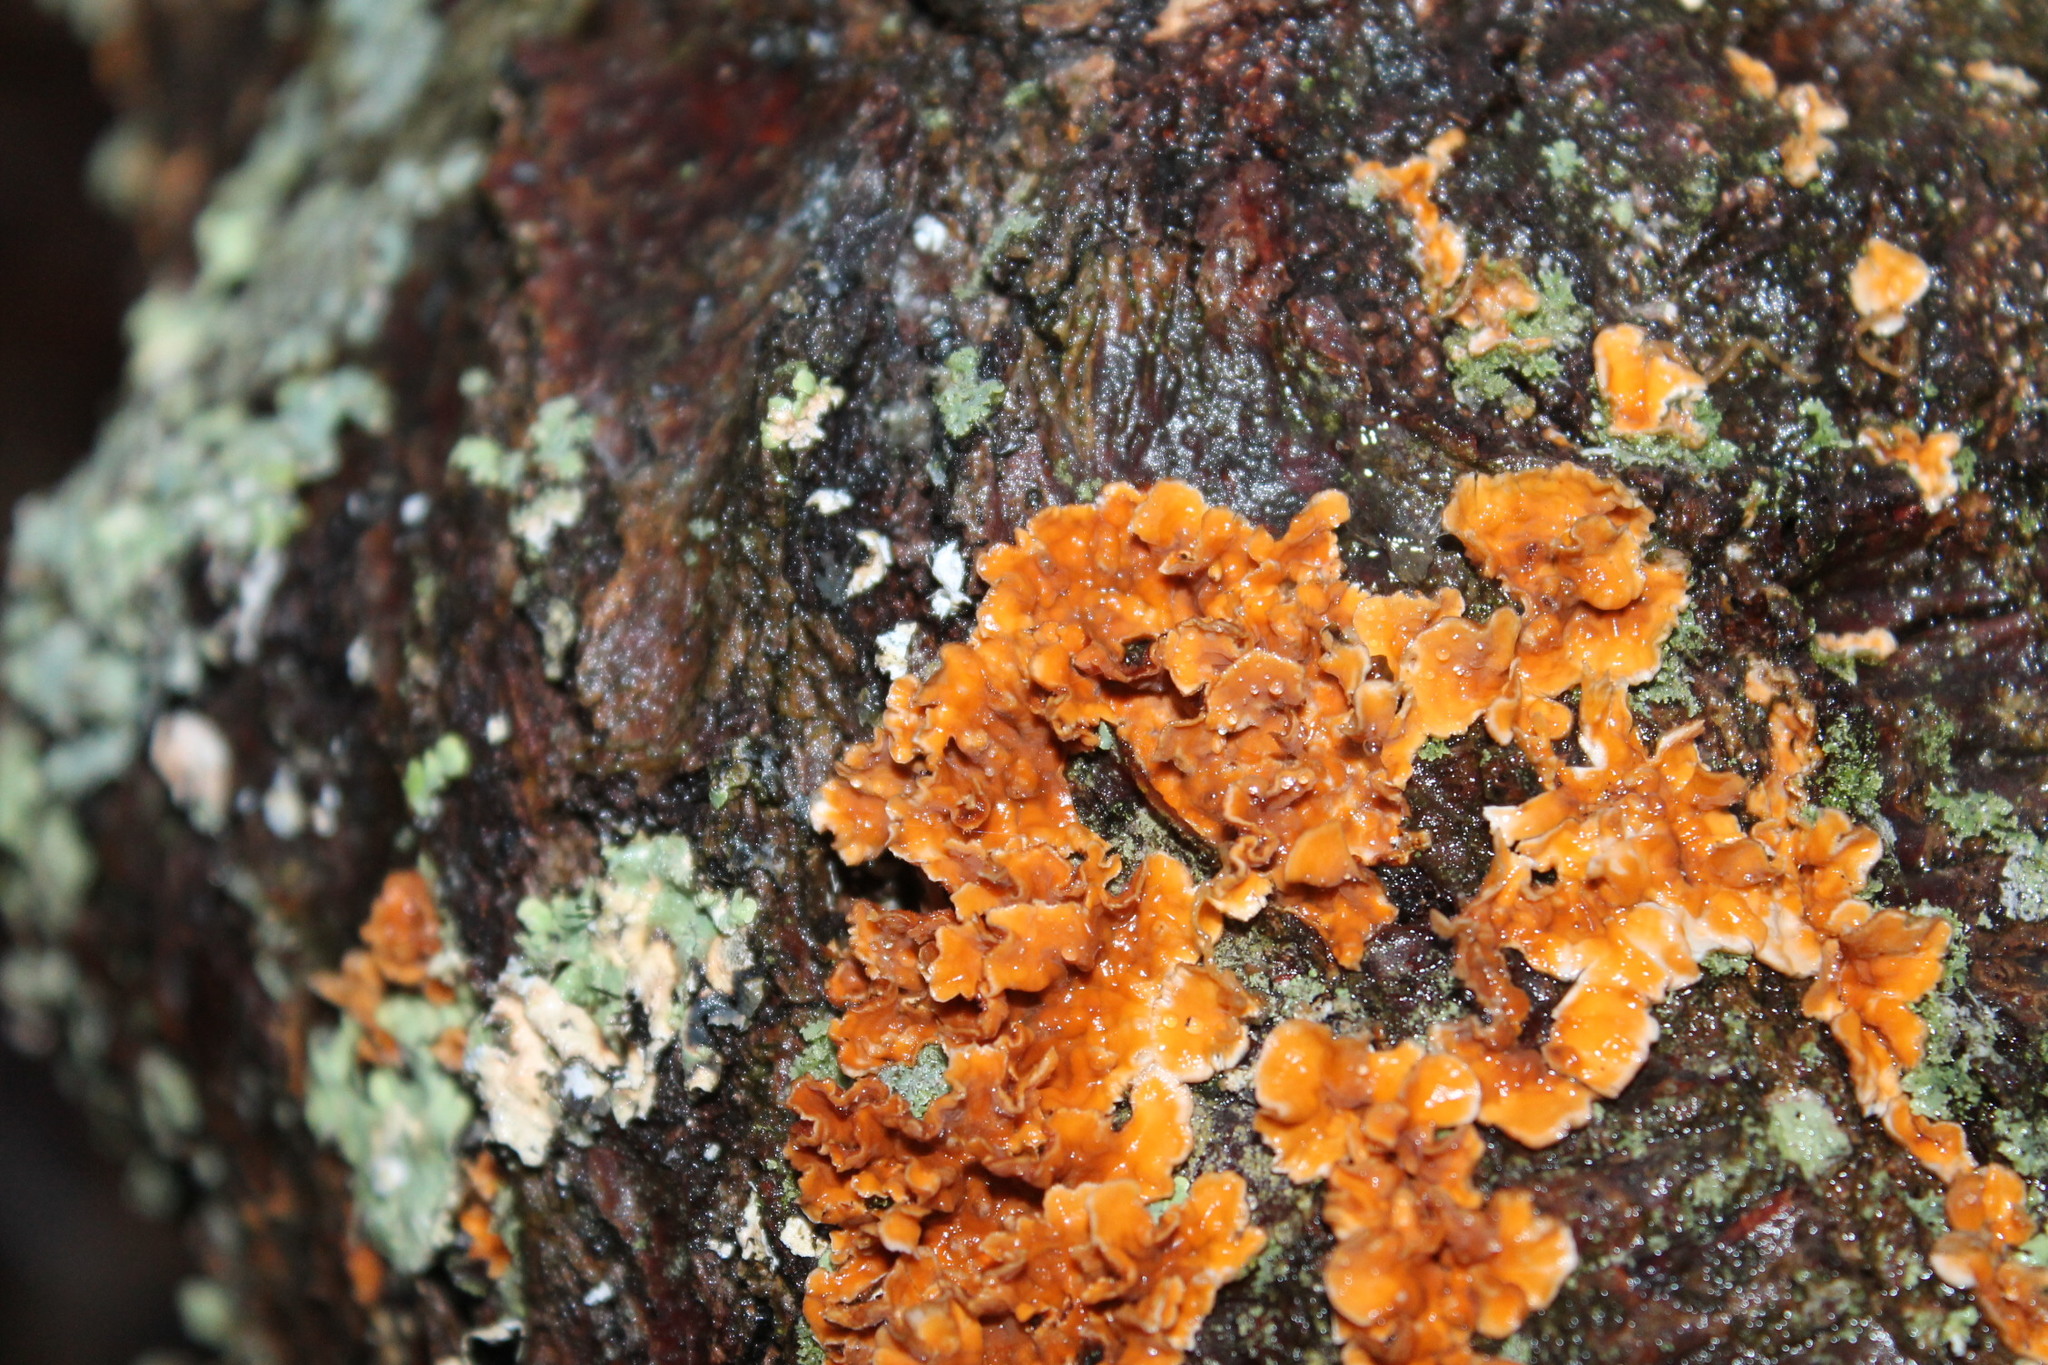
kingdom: Fungi
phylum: Basidiomycota
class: Agaricomycetes
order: Russulales
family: Stereaceae
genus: Stereum
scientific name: Stereum complicatum
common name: Crowded parchment
